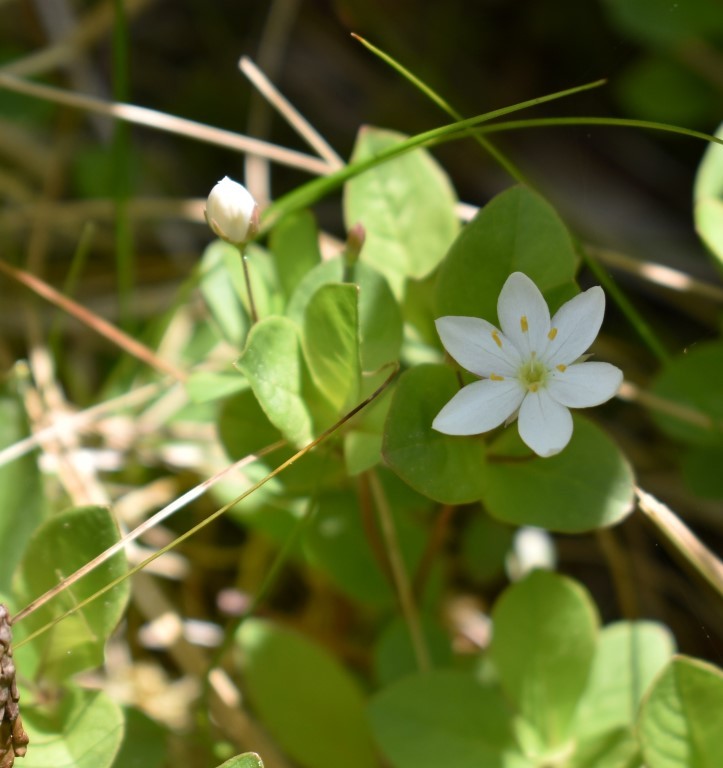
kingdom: Plantae
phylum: Tracheophyta
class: Magnoliopsida
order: Ericales
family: Primulaceae
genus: Lysimachia
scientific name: Lysimachia europaea
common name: Arctic starflower
